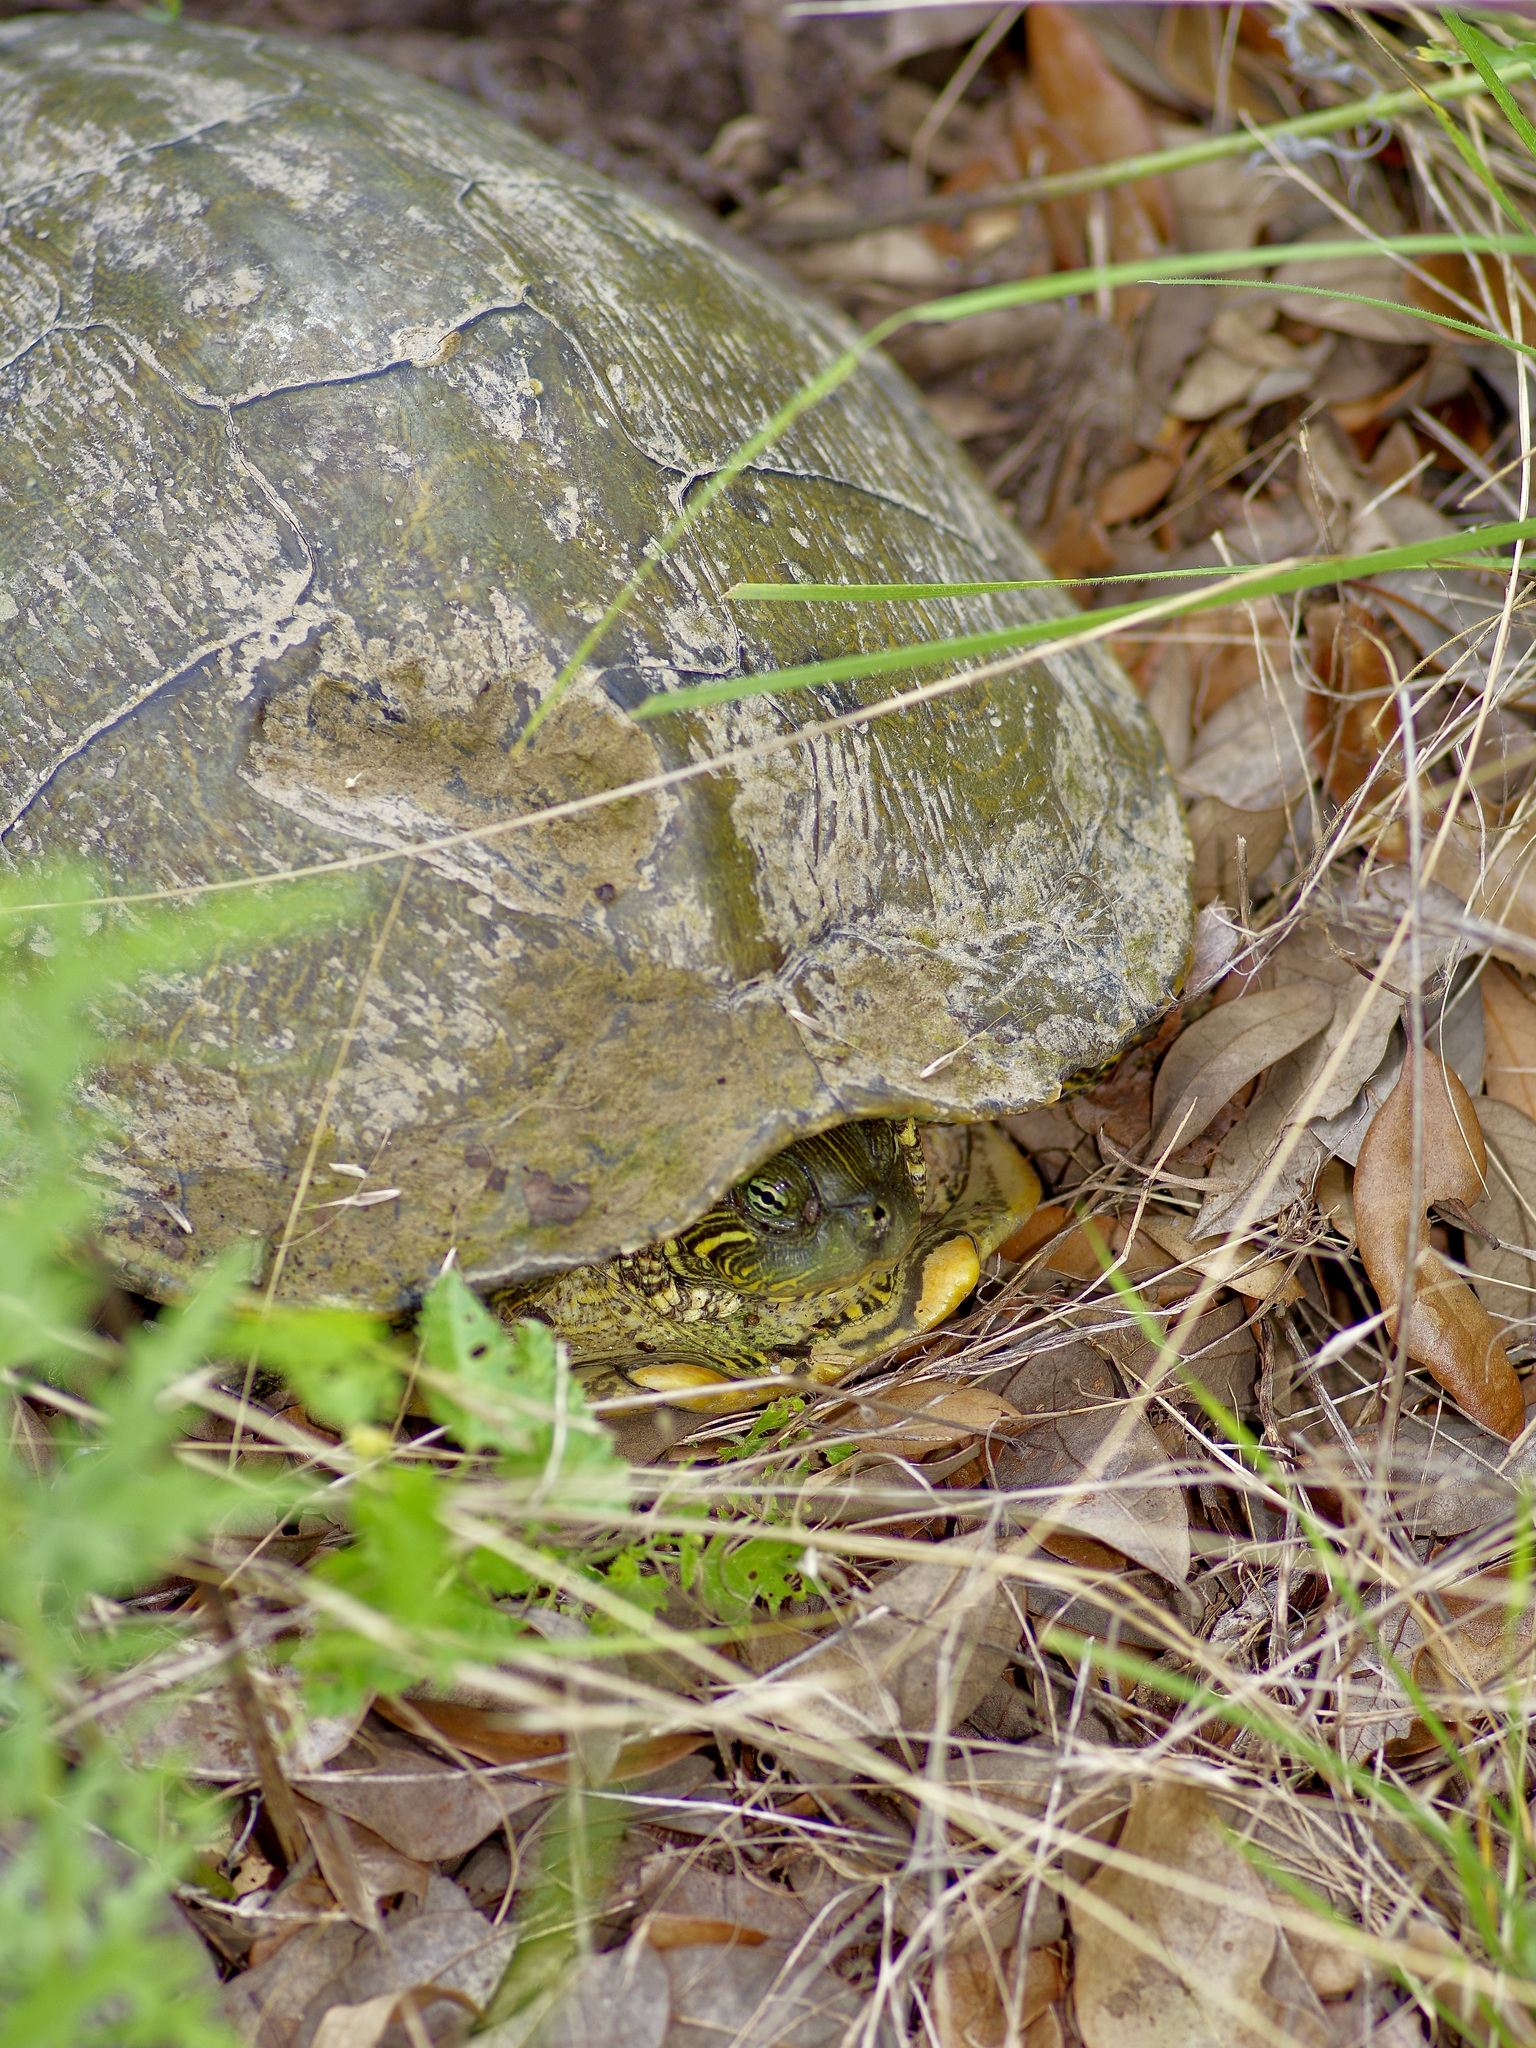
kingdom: Animalia
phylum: Chordata
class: Testudines
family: Emydidae
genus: Pseudemys
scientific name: Pseudemys texana
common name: Texas river cooter
